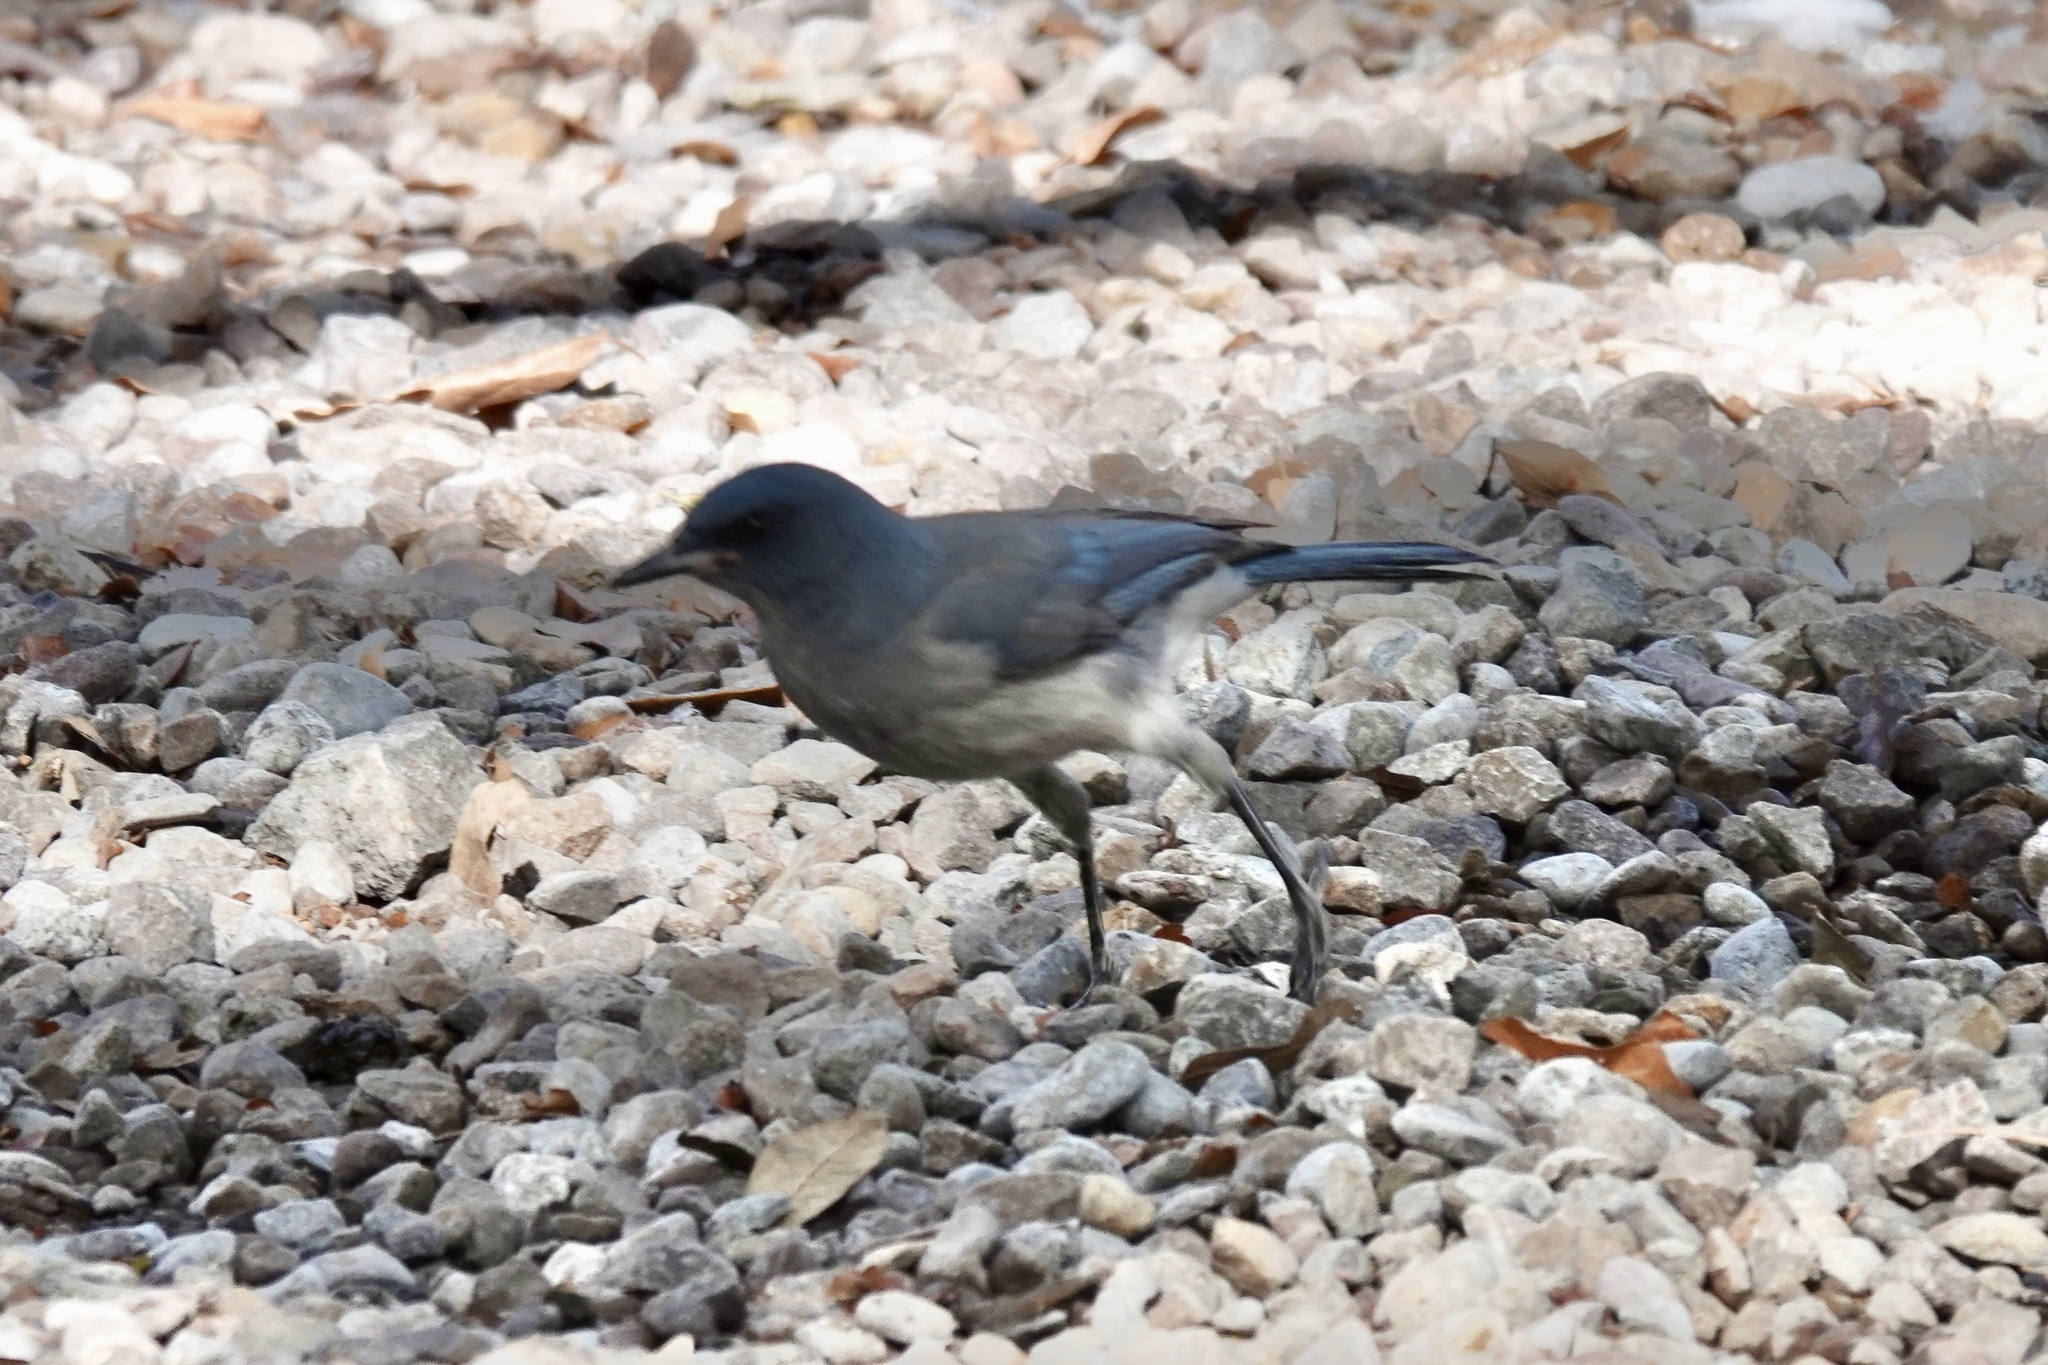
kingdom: Animalia
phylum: Chordata
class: Aves
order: Passeriformes
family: Corvidae
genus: Aphelocoma
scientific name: Aphelocoma wollweberi
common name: Mexican jay
